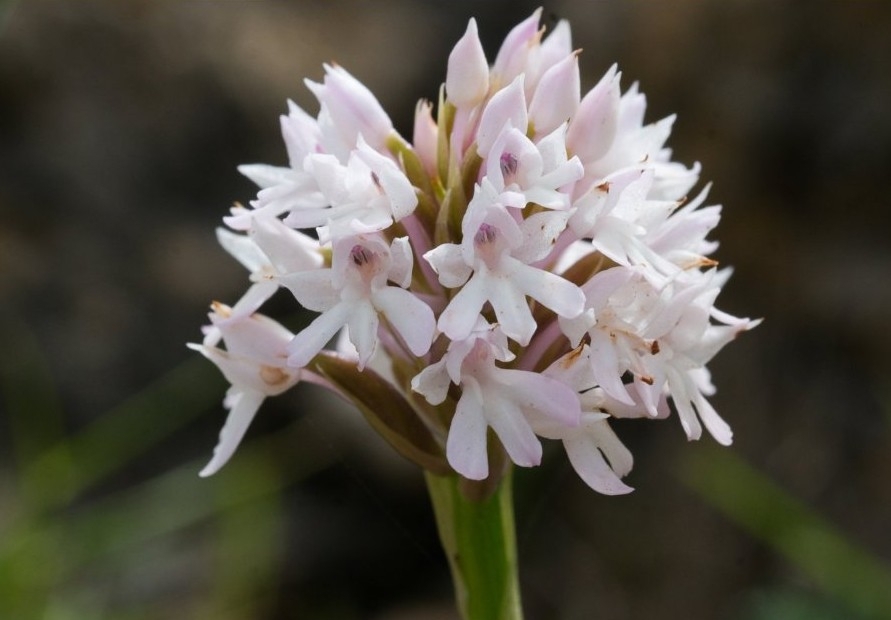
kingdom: Plantae
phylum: Tracheophyta
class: Liliopsida
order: Asparagales
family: Orchidaceae
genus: Anacamptis
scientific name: Anacamptis pyramidalis
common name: Pyramidal orchid
